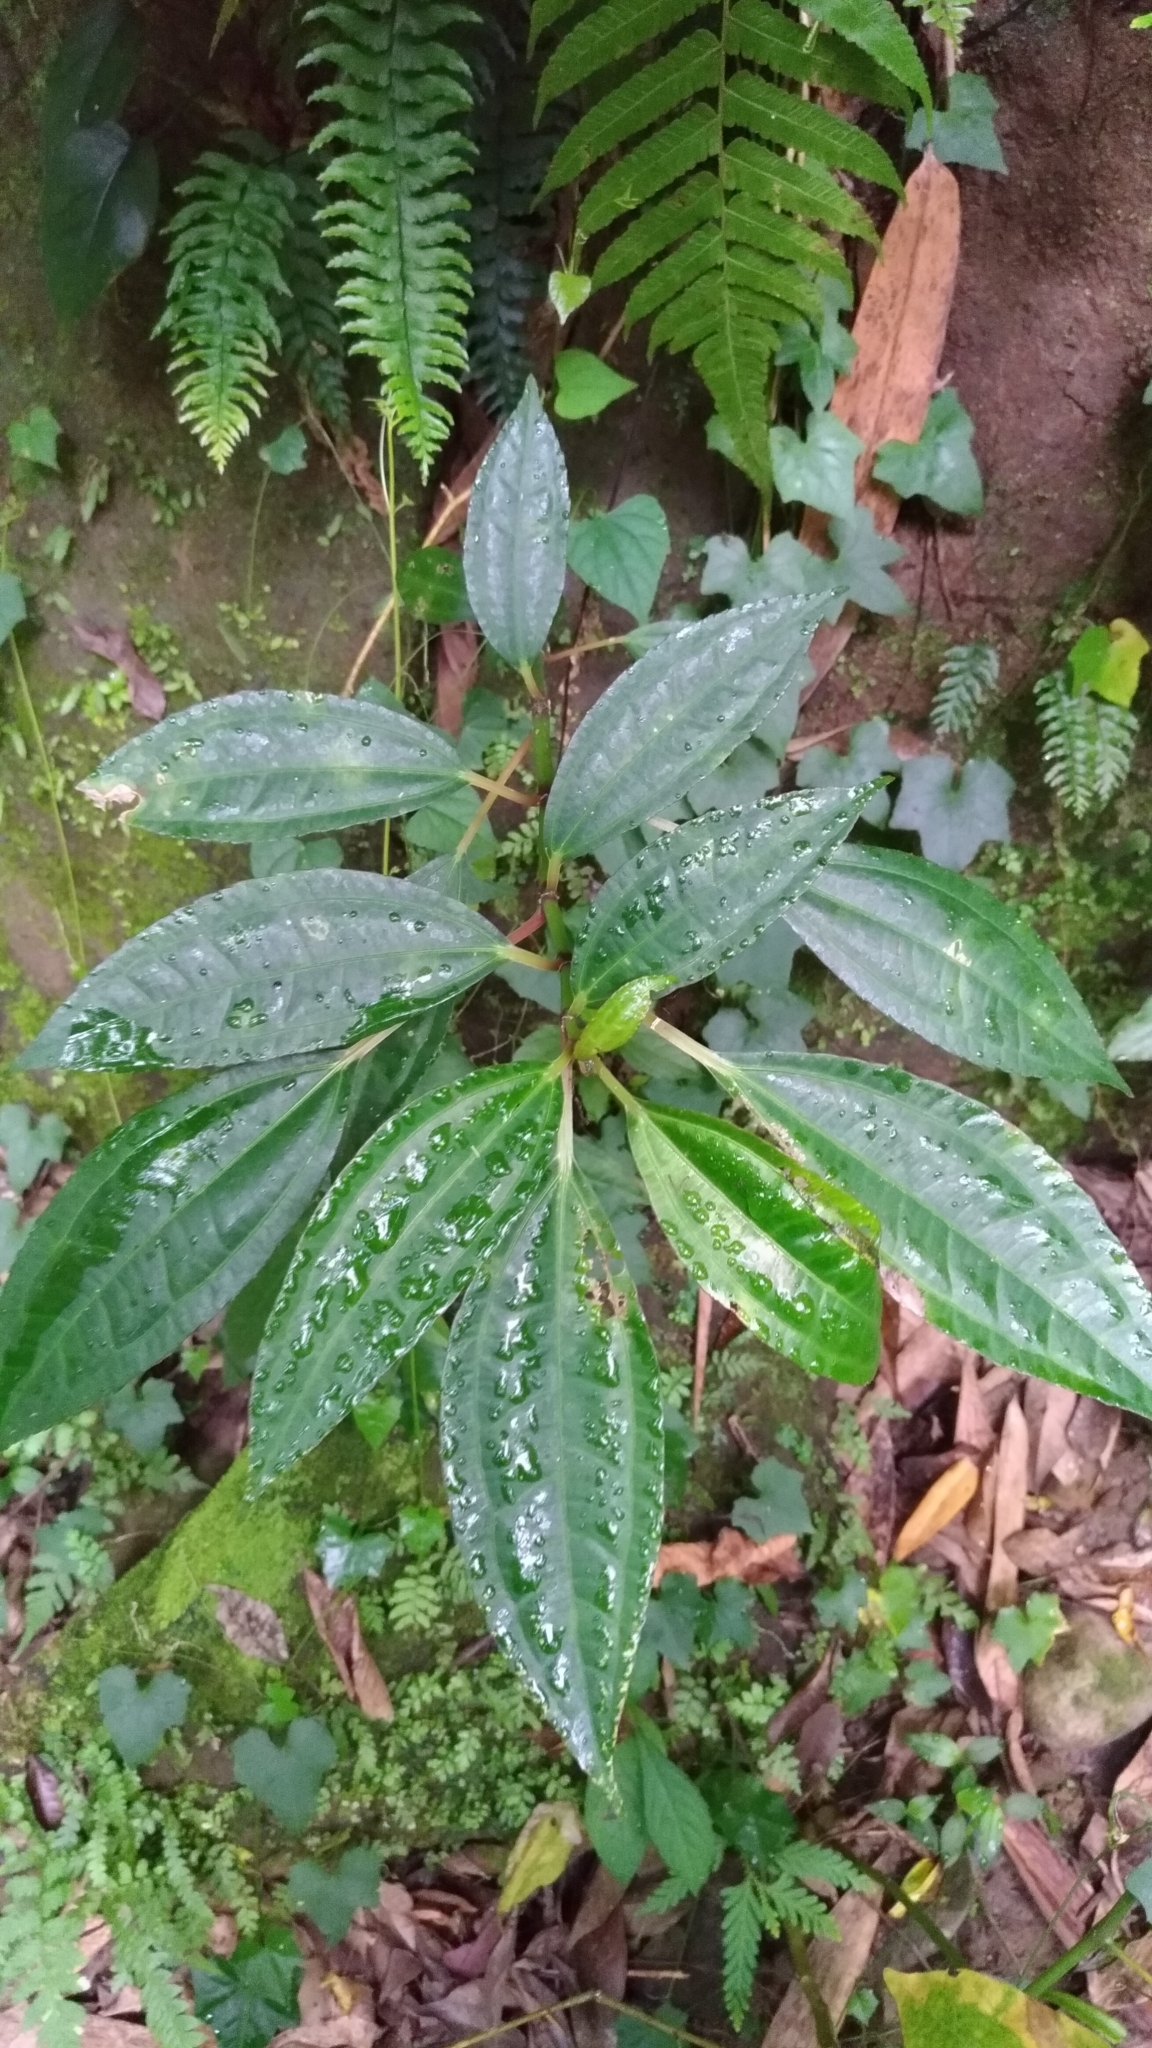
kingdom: Plantae
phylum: Tracheophyta
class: Magnoliopsida
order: Rosales
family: Urticaceae
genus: Pilea
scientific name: Pilea rotundinucula
